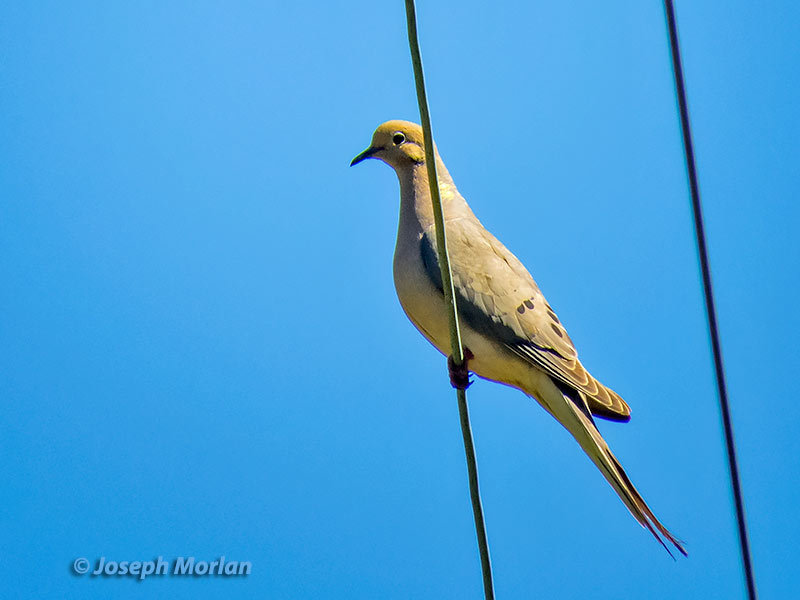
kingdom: Animalia
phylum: Chordata
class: Aves
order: Columbiformes
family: Columbidae
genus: Zenaida
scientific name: Zenaida macroura
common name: Mourning dove
